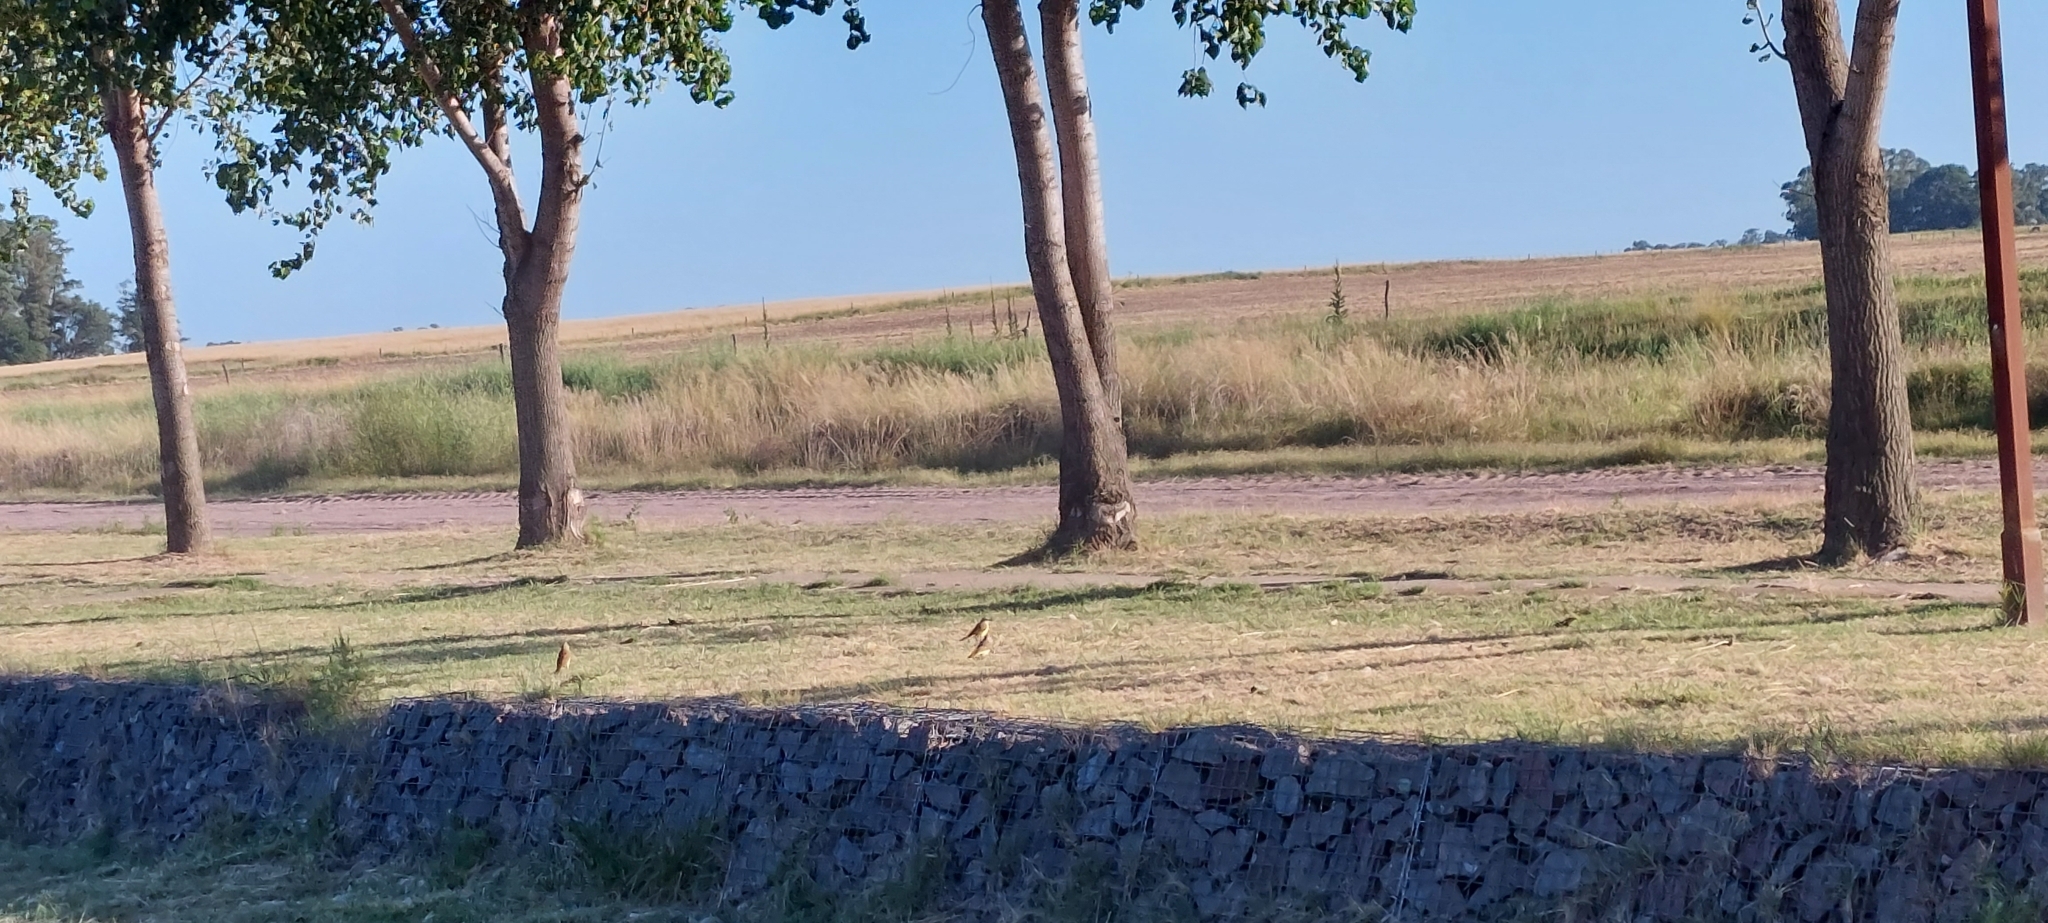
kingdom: Animalia
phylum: Chordata
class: Aves
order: Passeriformes
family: Tyrannidae
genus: Machetornis
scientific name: Machetornis rixosa
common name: Cattle tyrant
